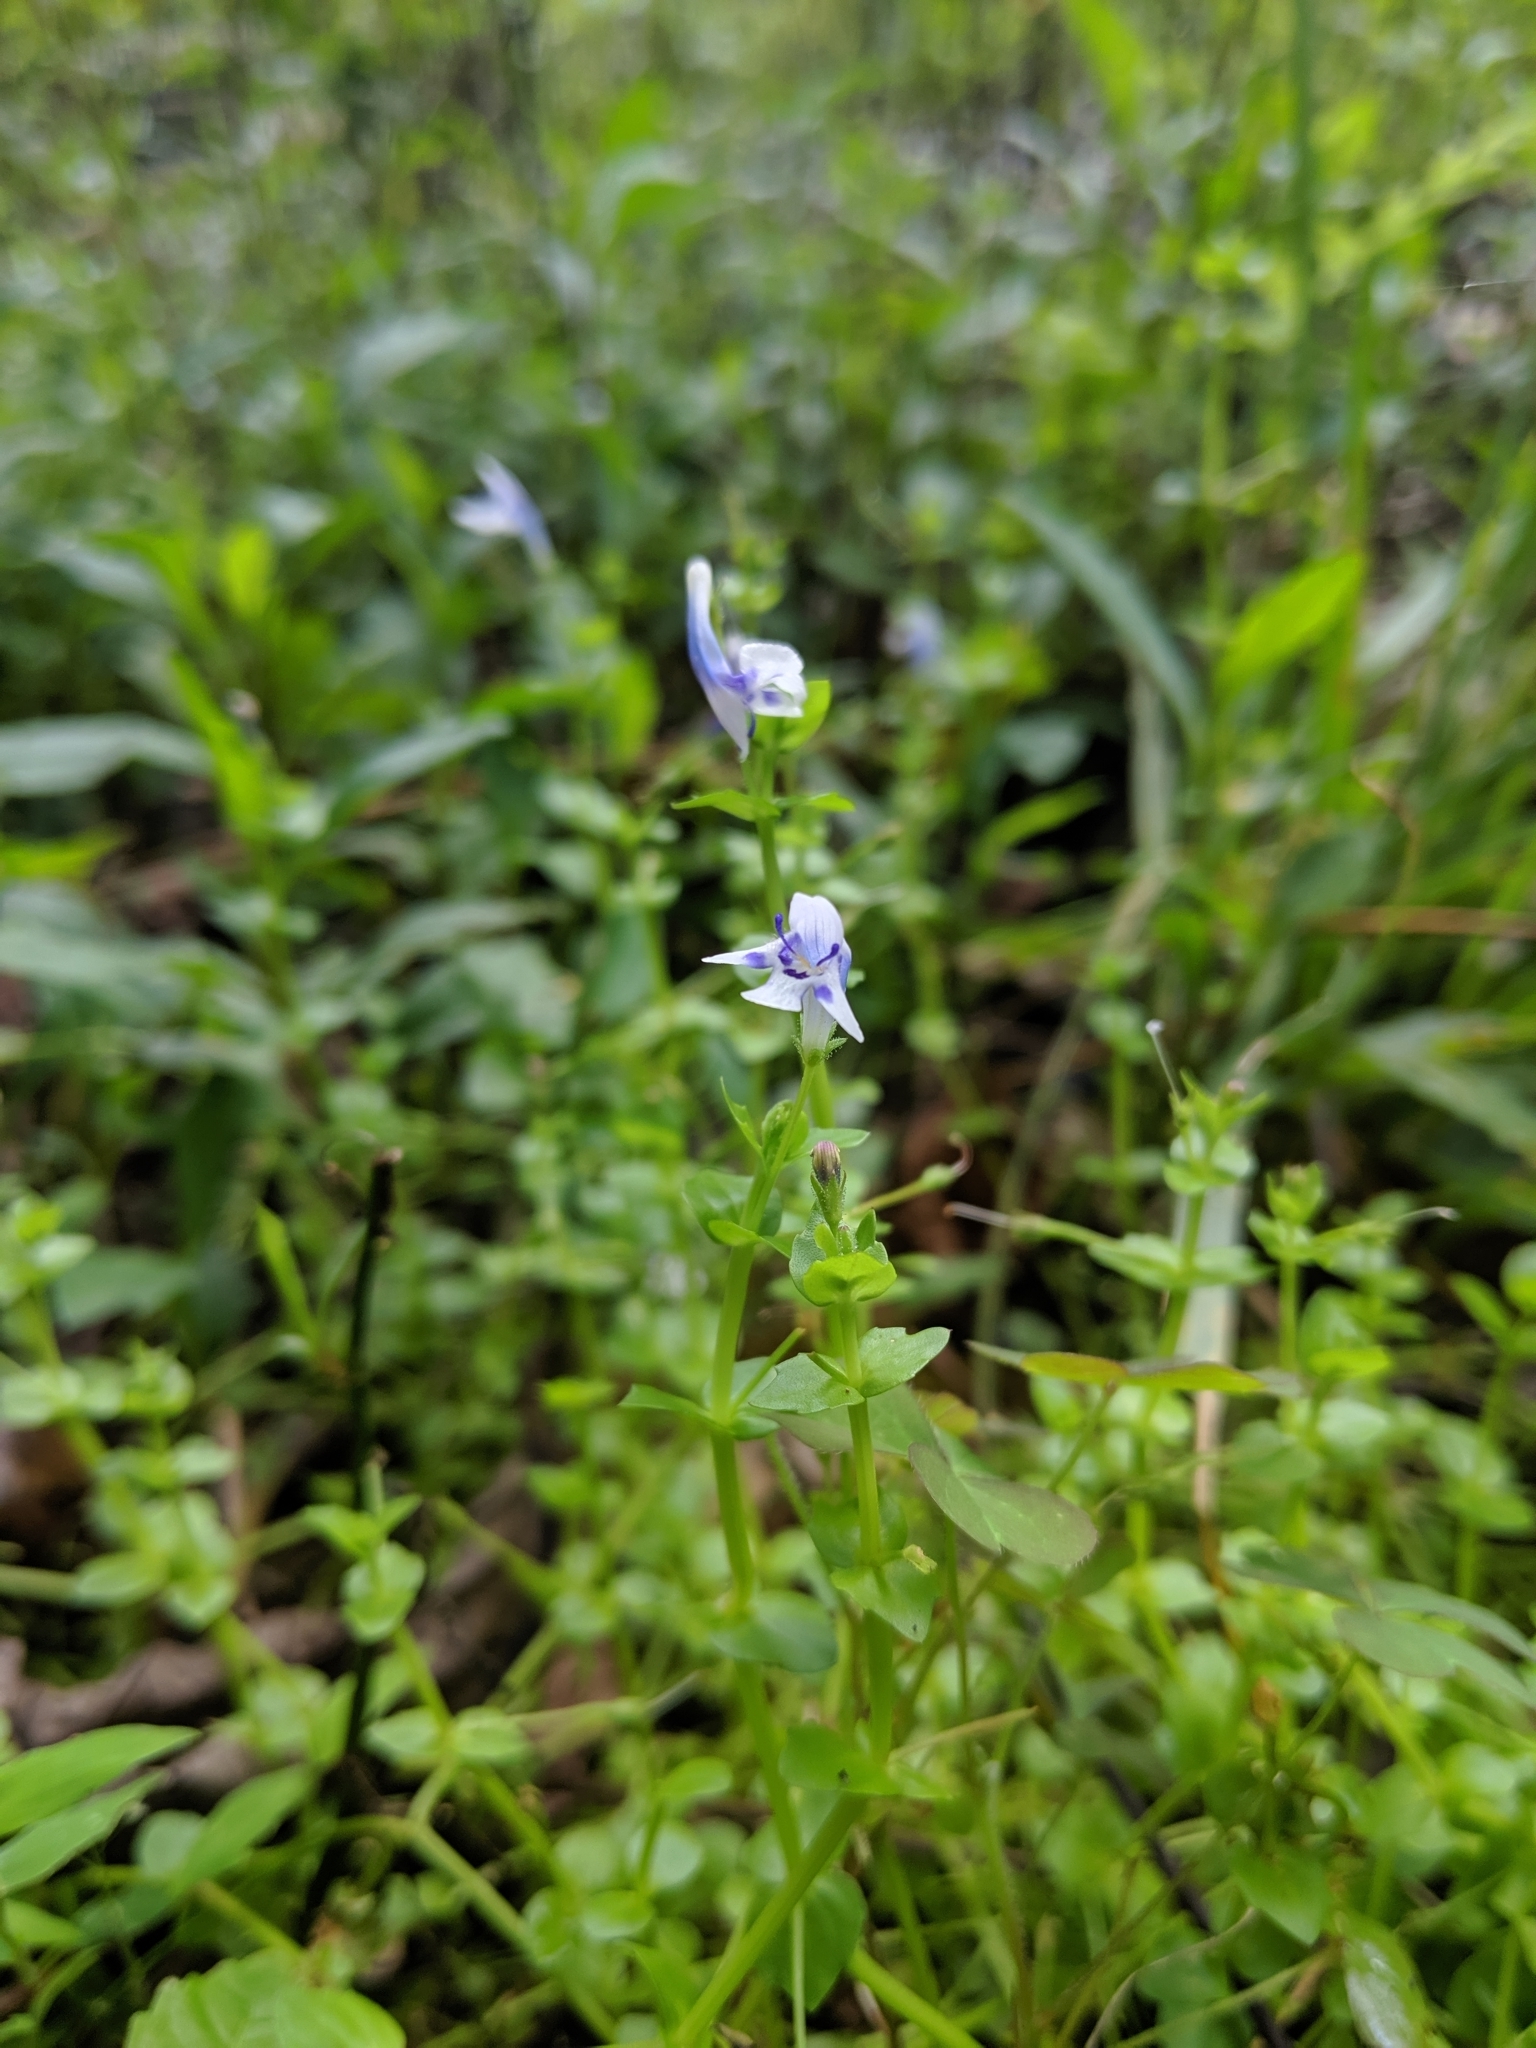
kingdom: Plantae
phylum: Tracheophyta
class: Magnoliopsida
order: Lamiales
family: Linderniaceae
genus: Lindernia
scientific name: Lindernia rotundifolia
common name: Baby’s tears
